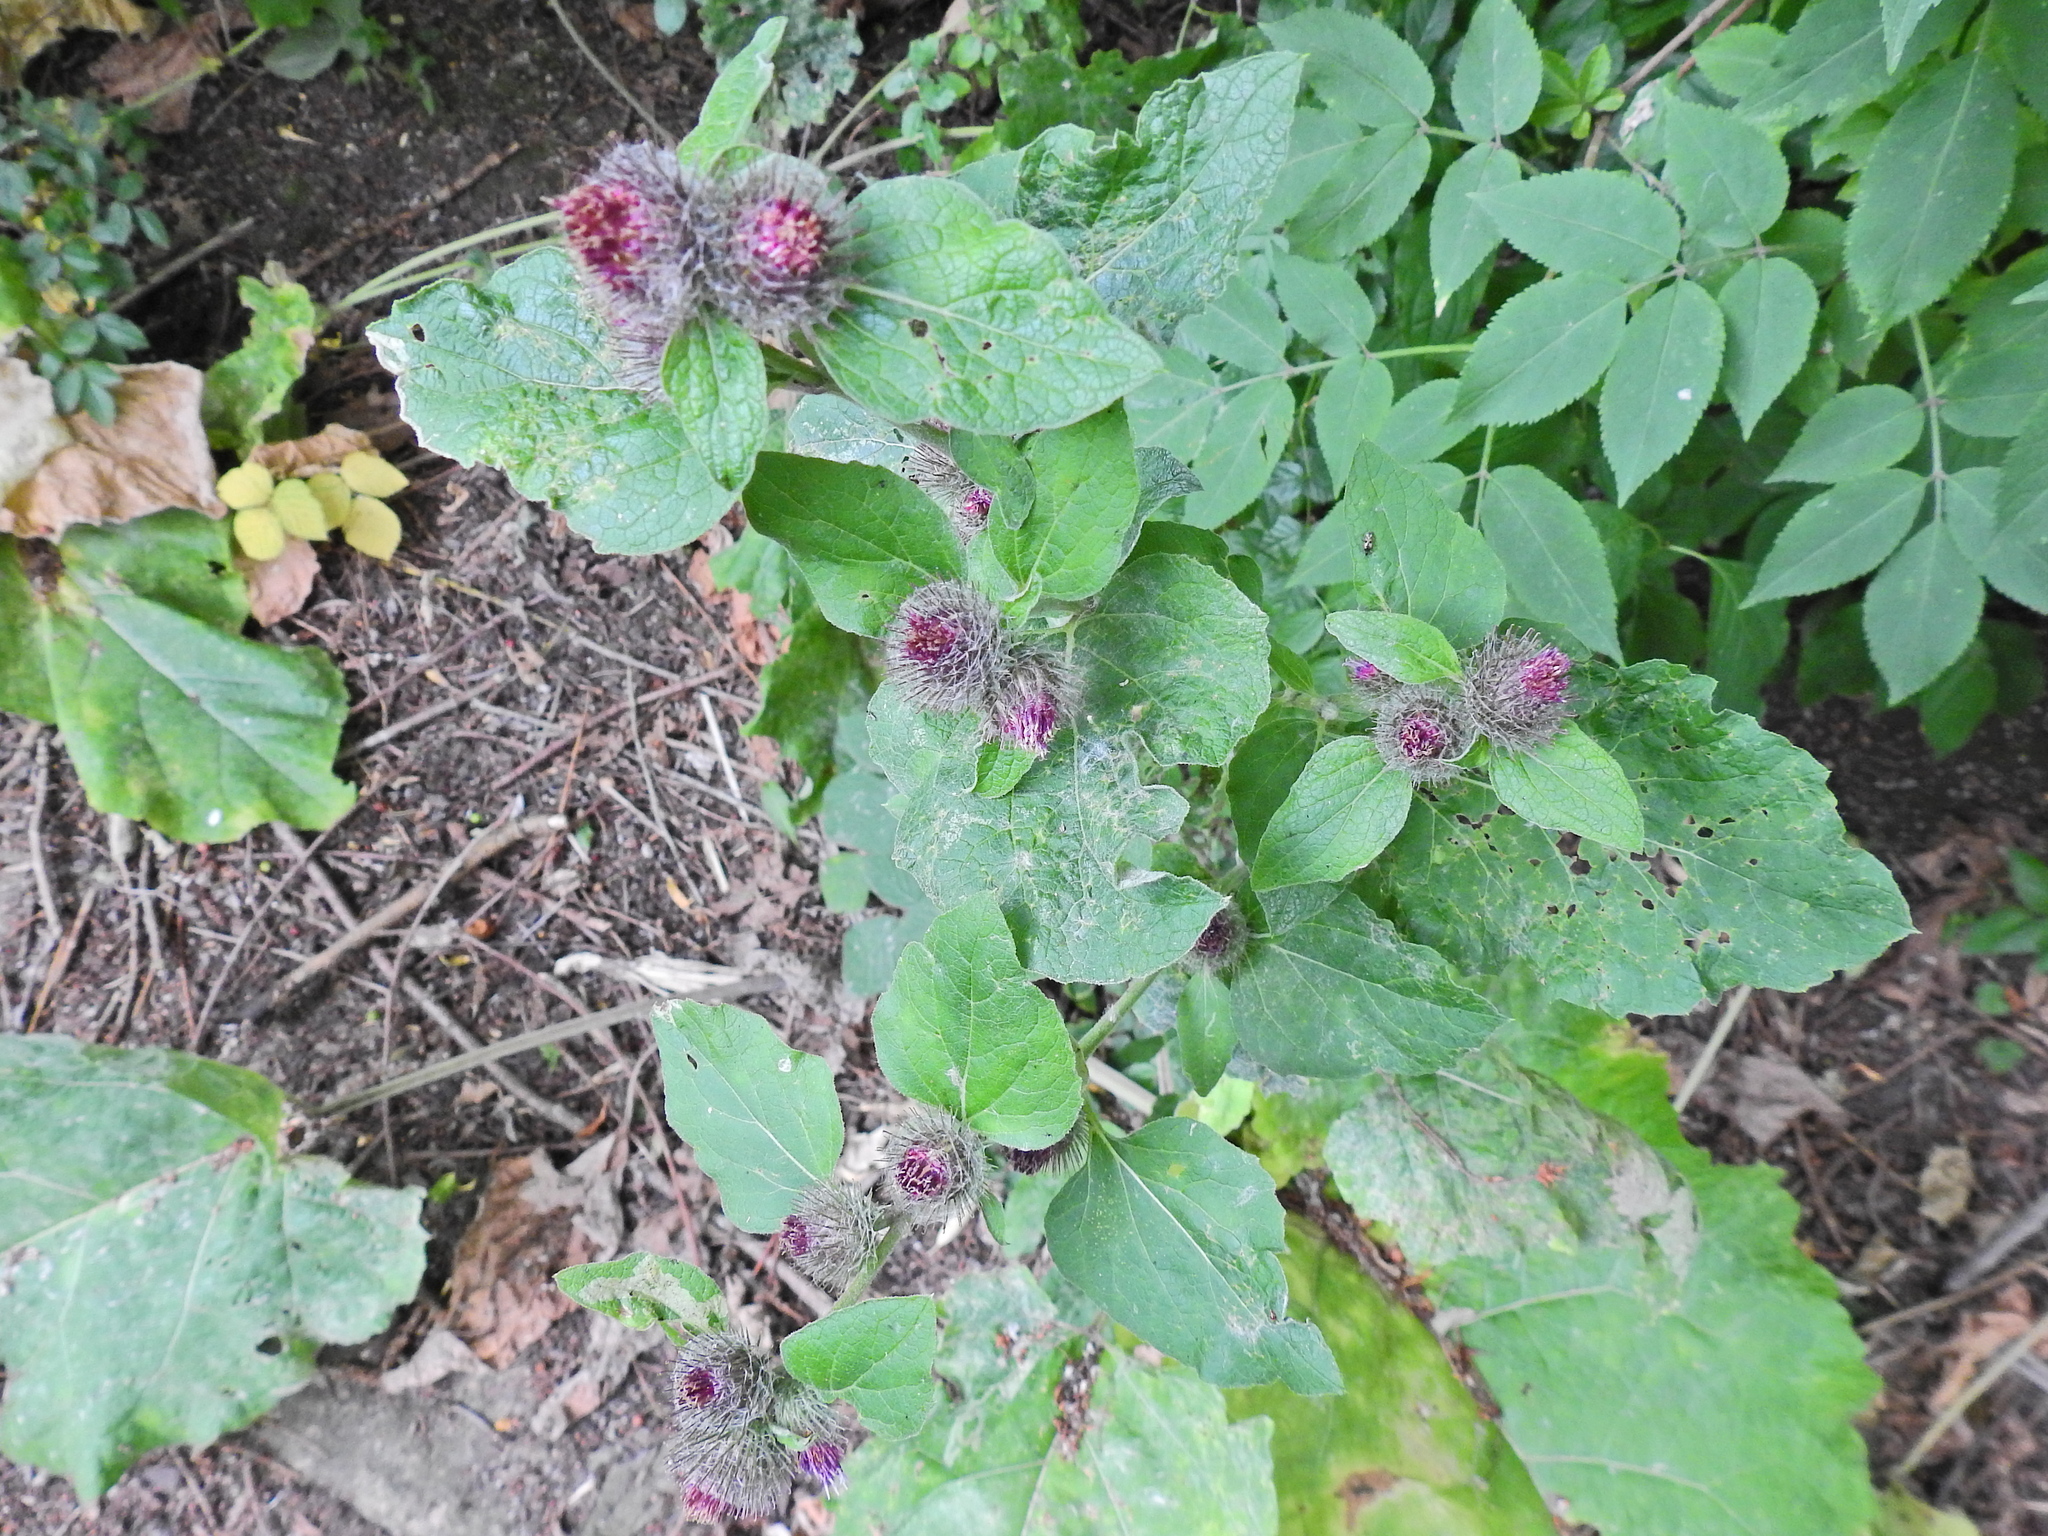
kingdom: Plantae
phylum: Tracheophyta
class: Magnoliopsida
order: Asterales
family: Asteraceae
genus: Arctium
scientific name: Arctium minus
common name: Lesser burdock
